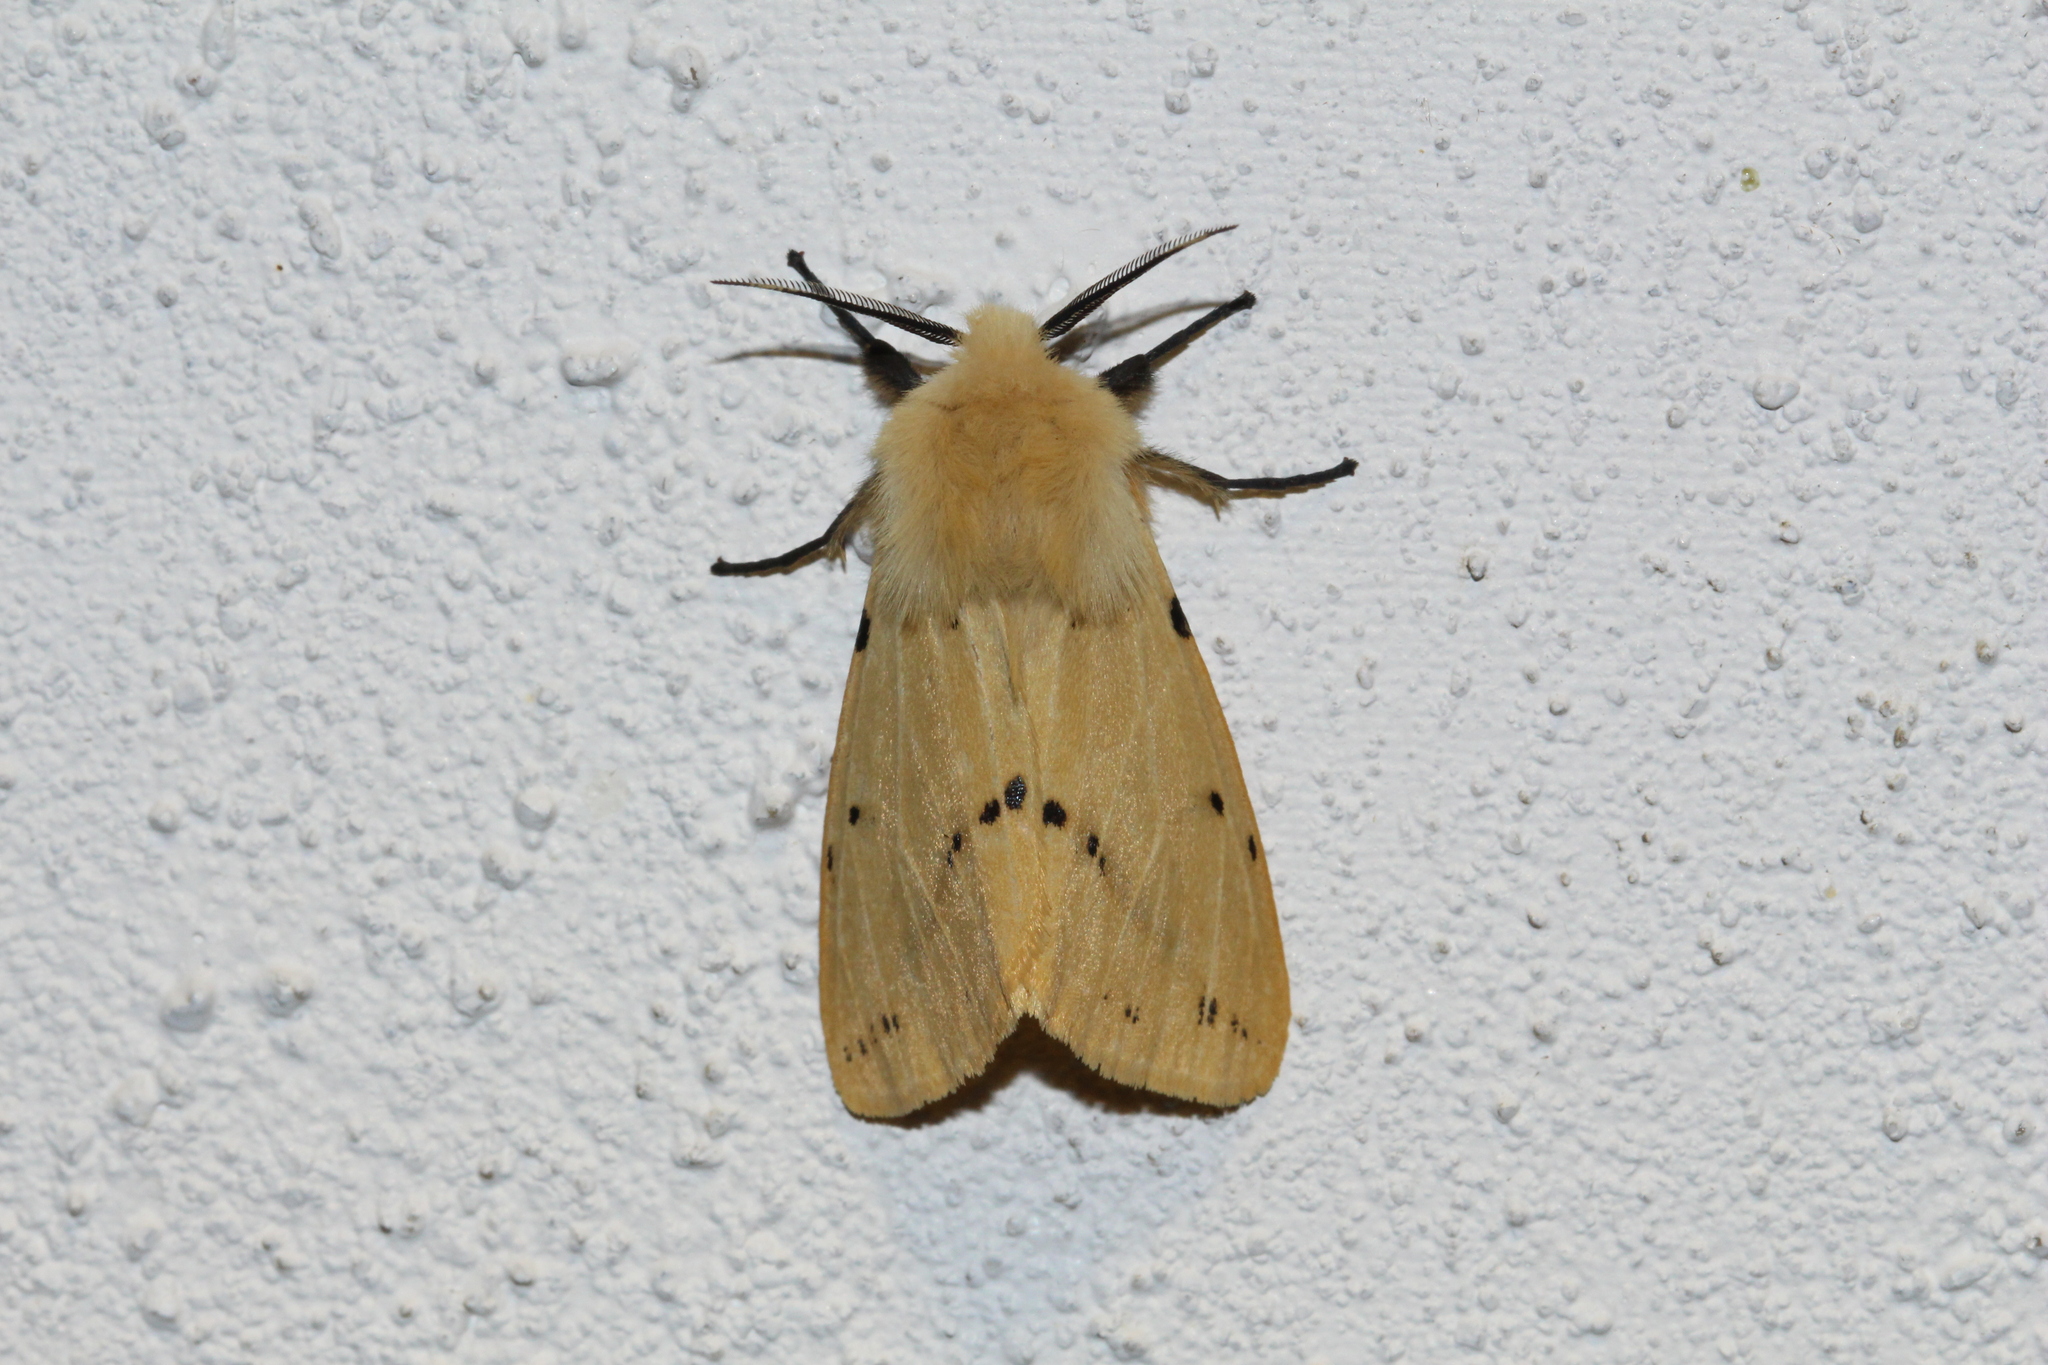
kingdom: Animalia
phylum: Arthropoda
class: Insecta
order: Lepidoptera
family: Erebidae
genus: Spilarctia
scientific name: Spilarctia lutea
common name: Buff ermine
